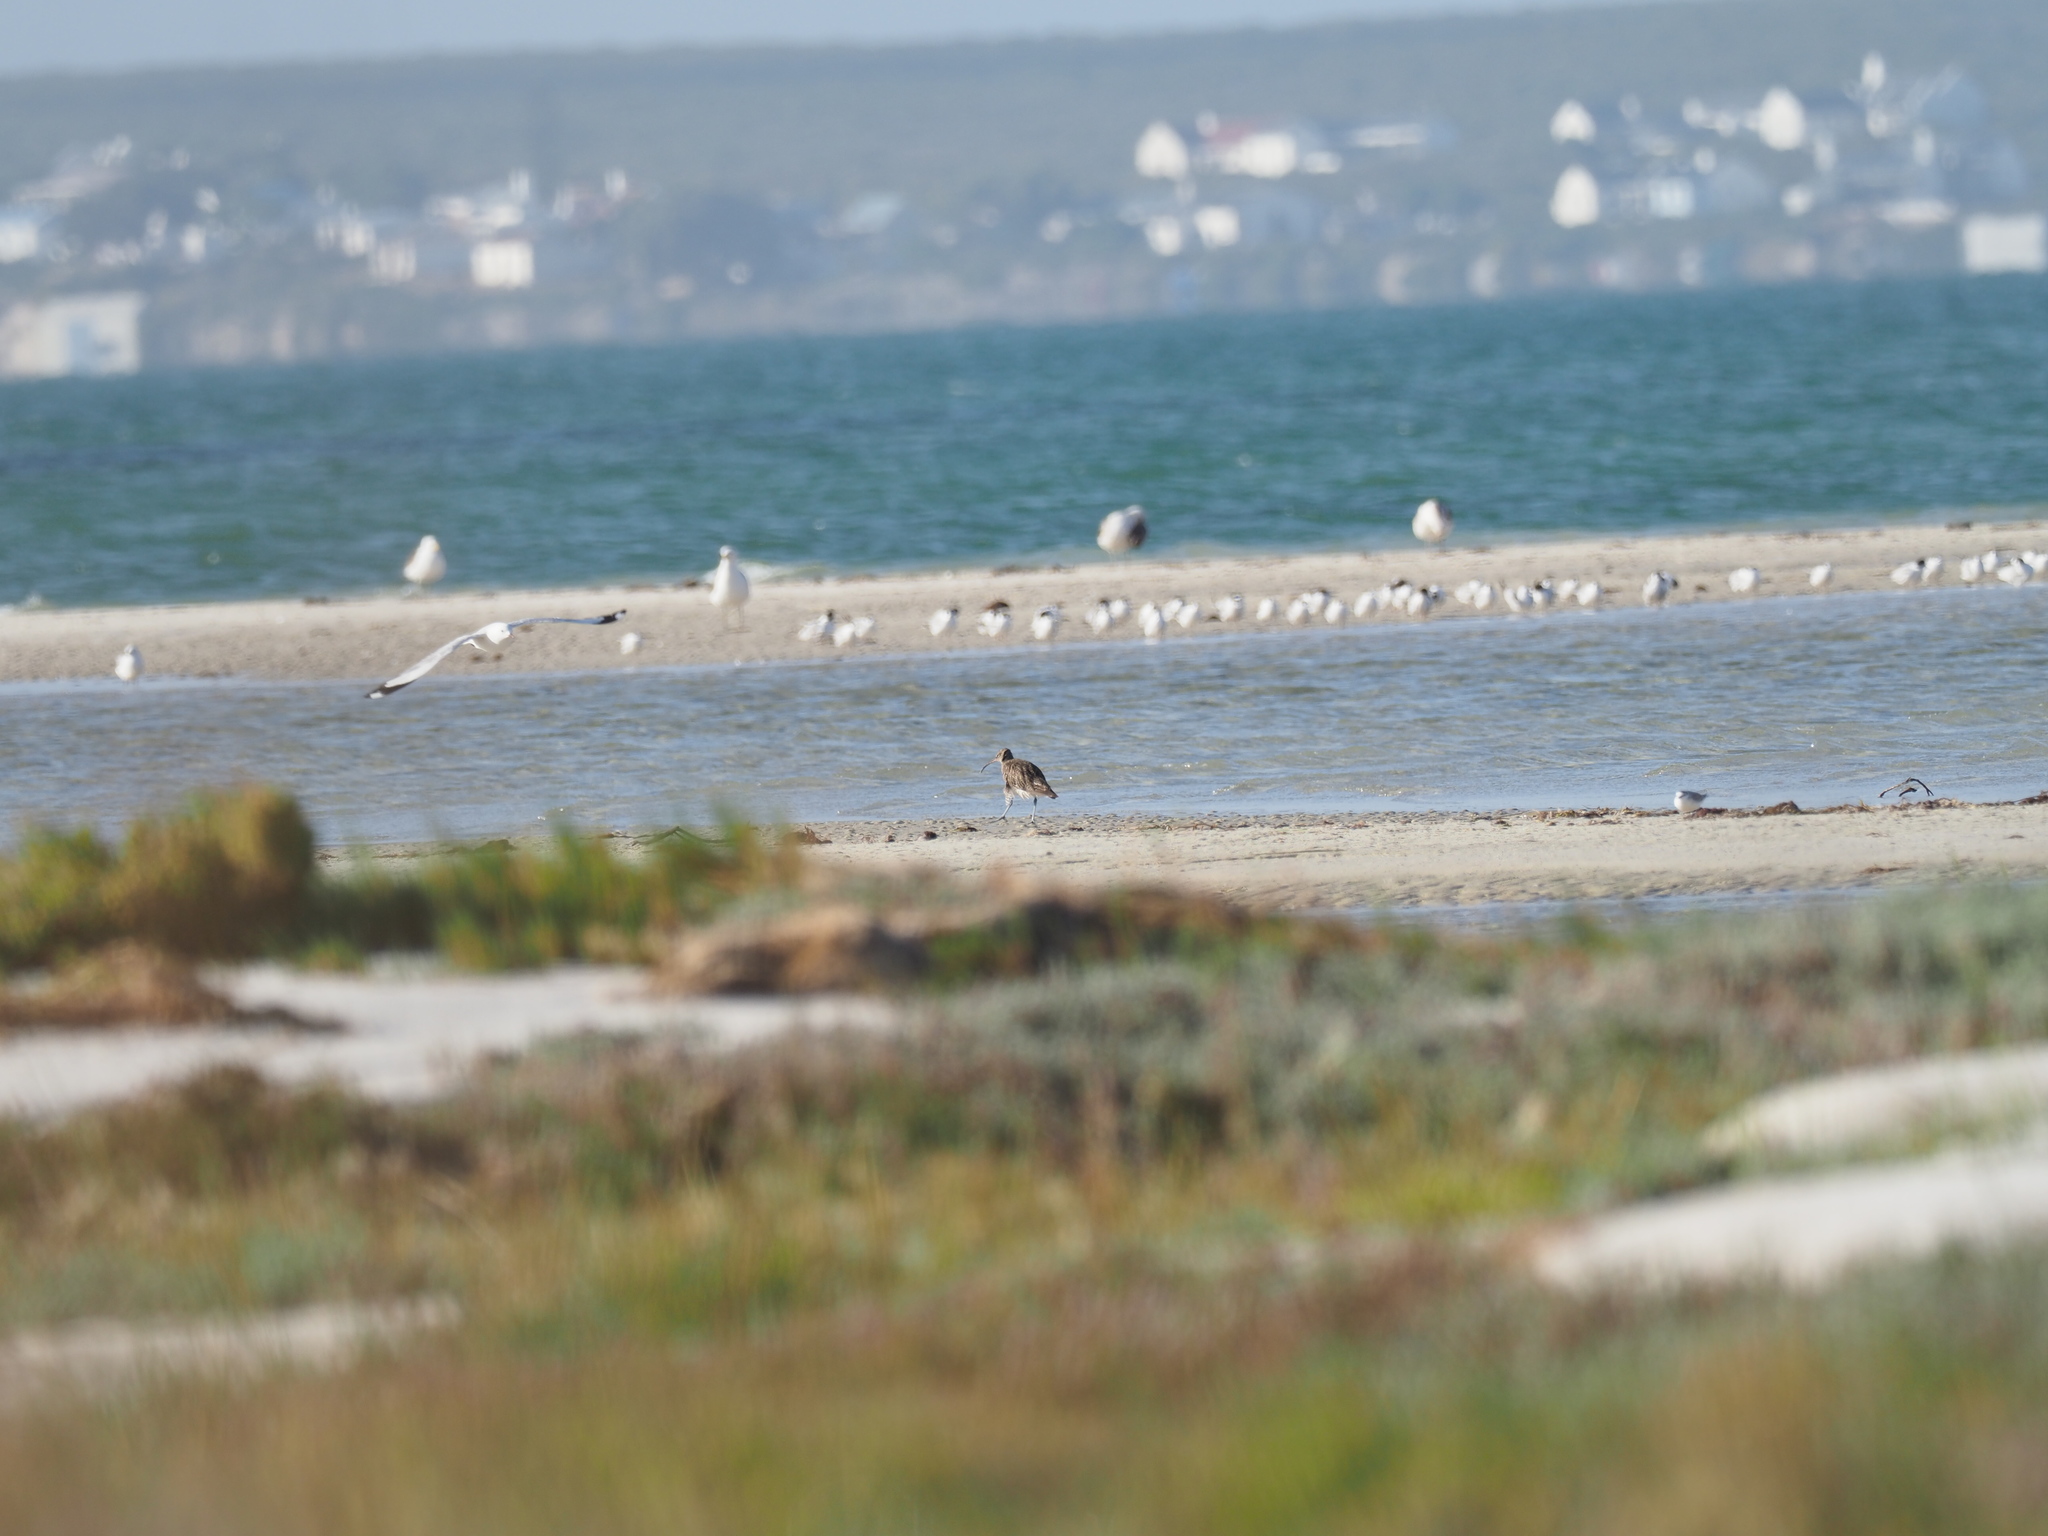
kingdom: Animalia
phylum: Chordata
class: Aves
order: Charadriiformes
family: Scolopacidae
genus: Numenius
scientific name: Numenius phaeopus
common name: Whimbrel
